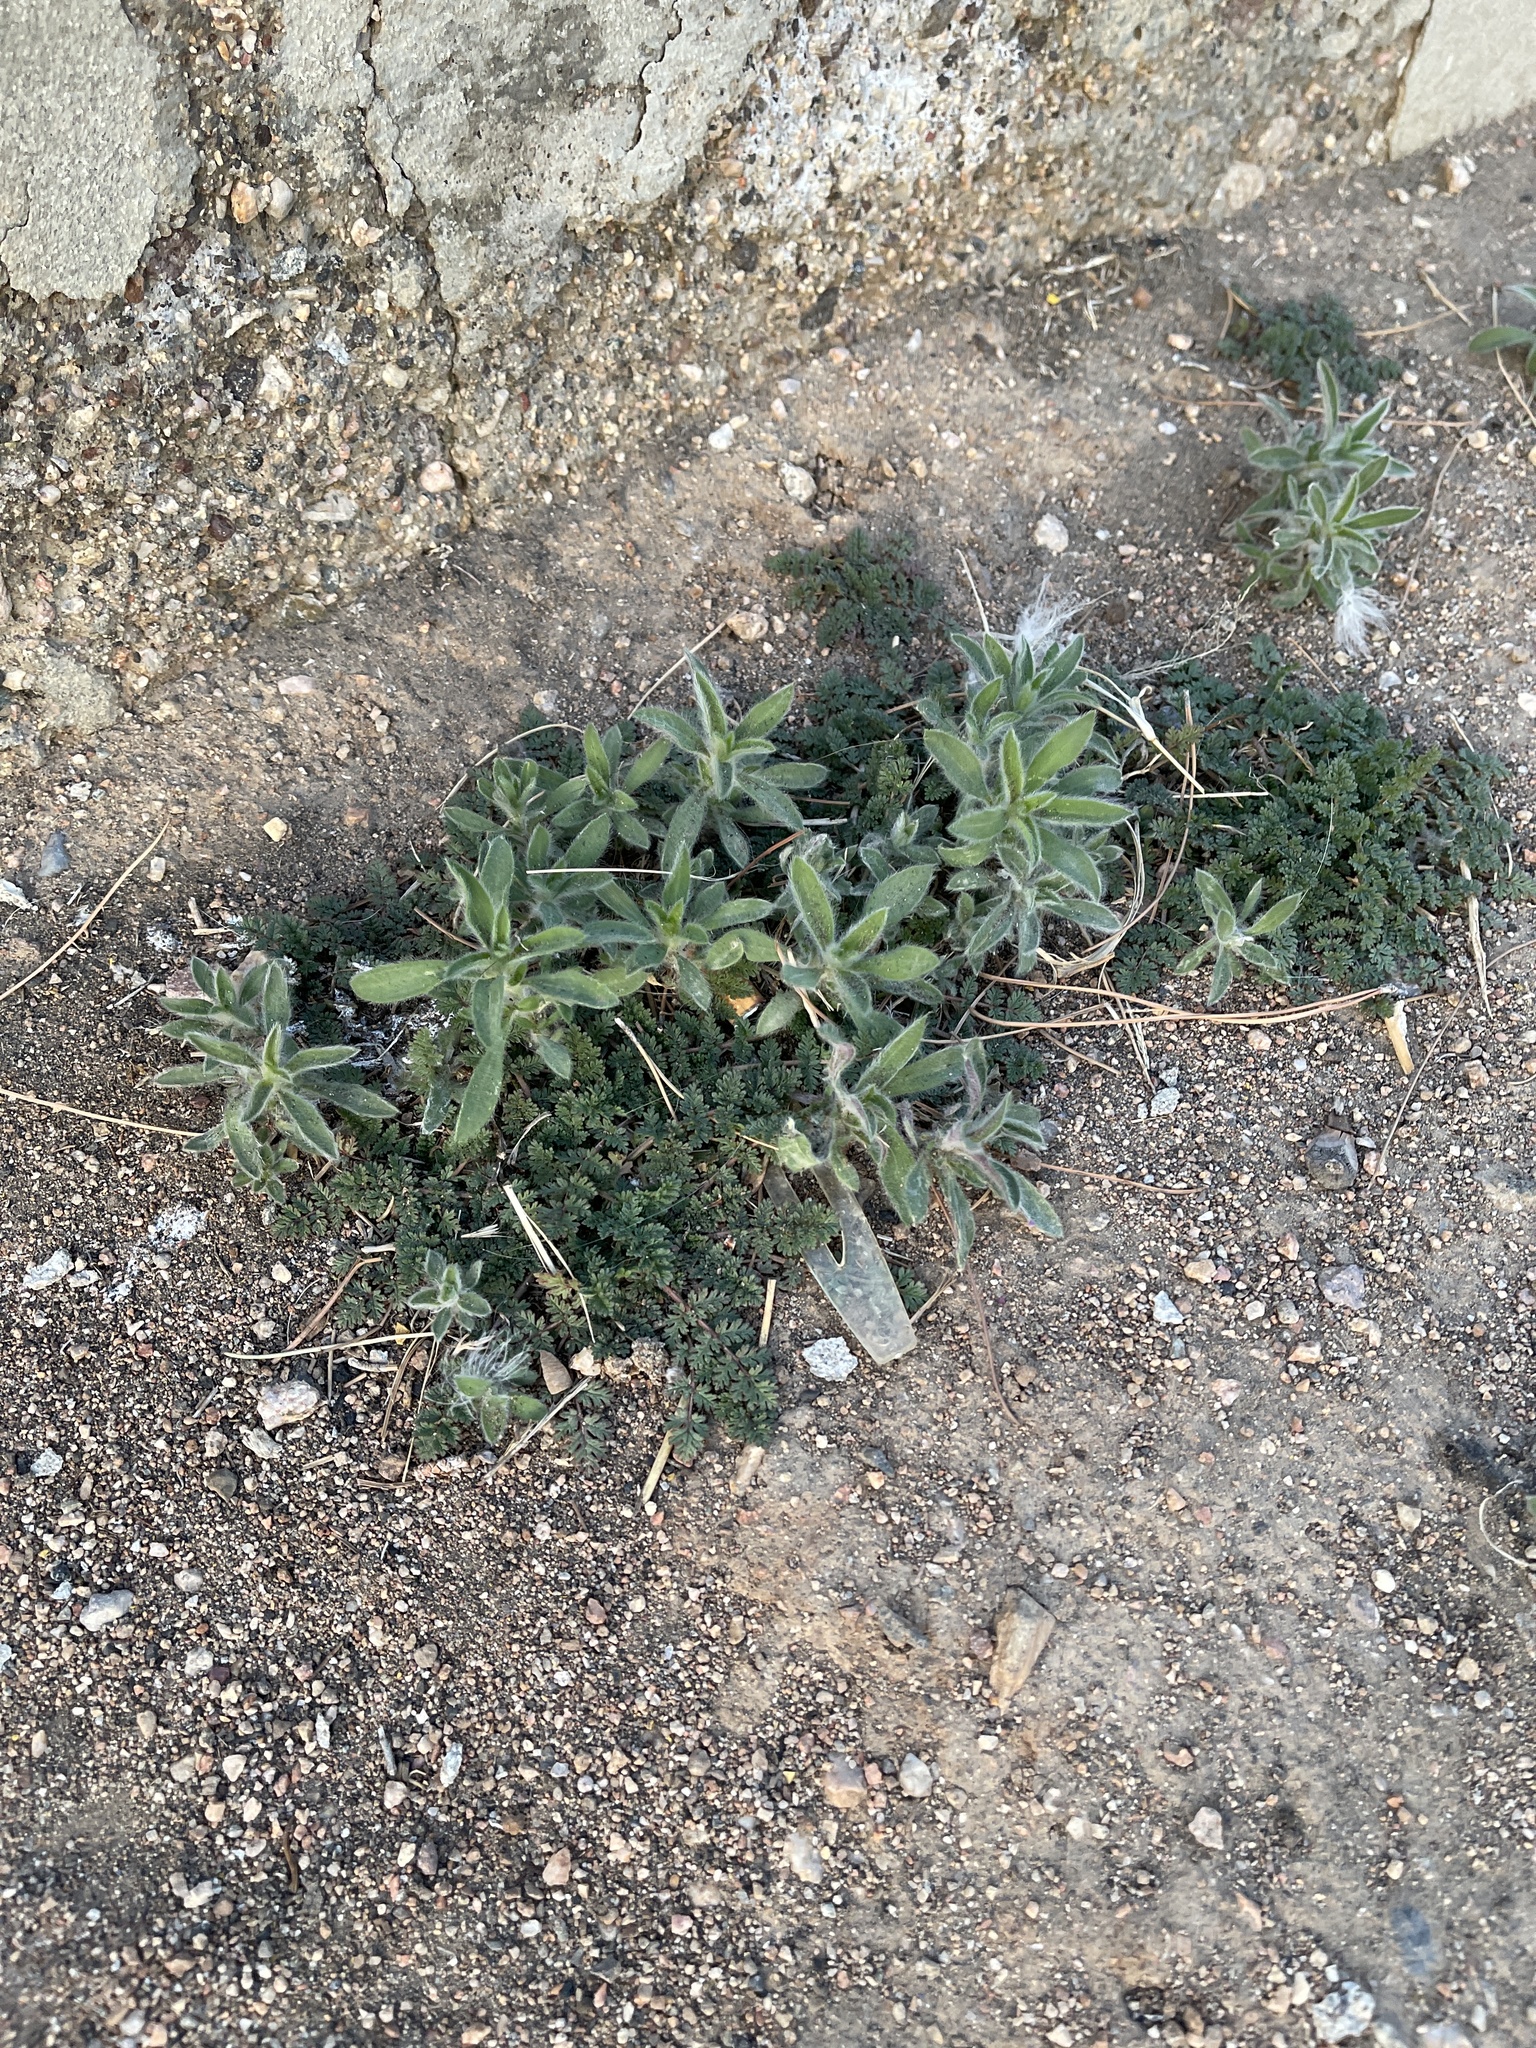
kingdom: Plantae
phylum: Tracheophyta
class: Magnoliopsida
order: Caryophyllales
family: Amaranthaceae
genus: Bassia
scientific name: Bassia scoparia
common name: Belvedere
